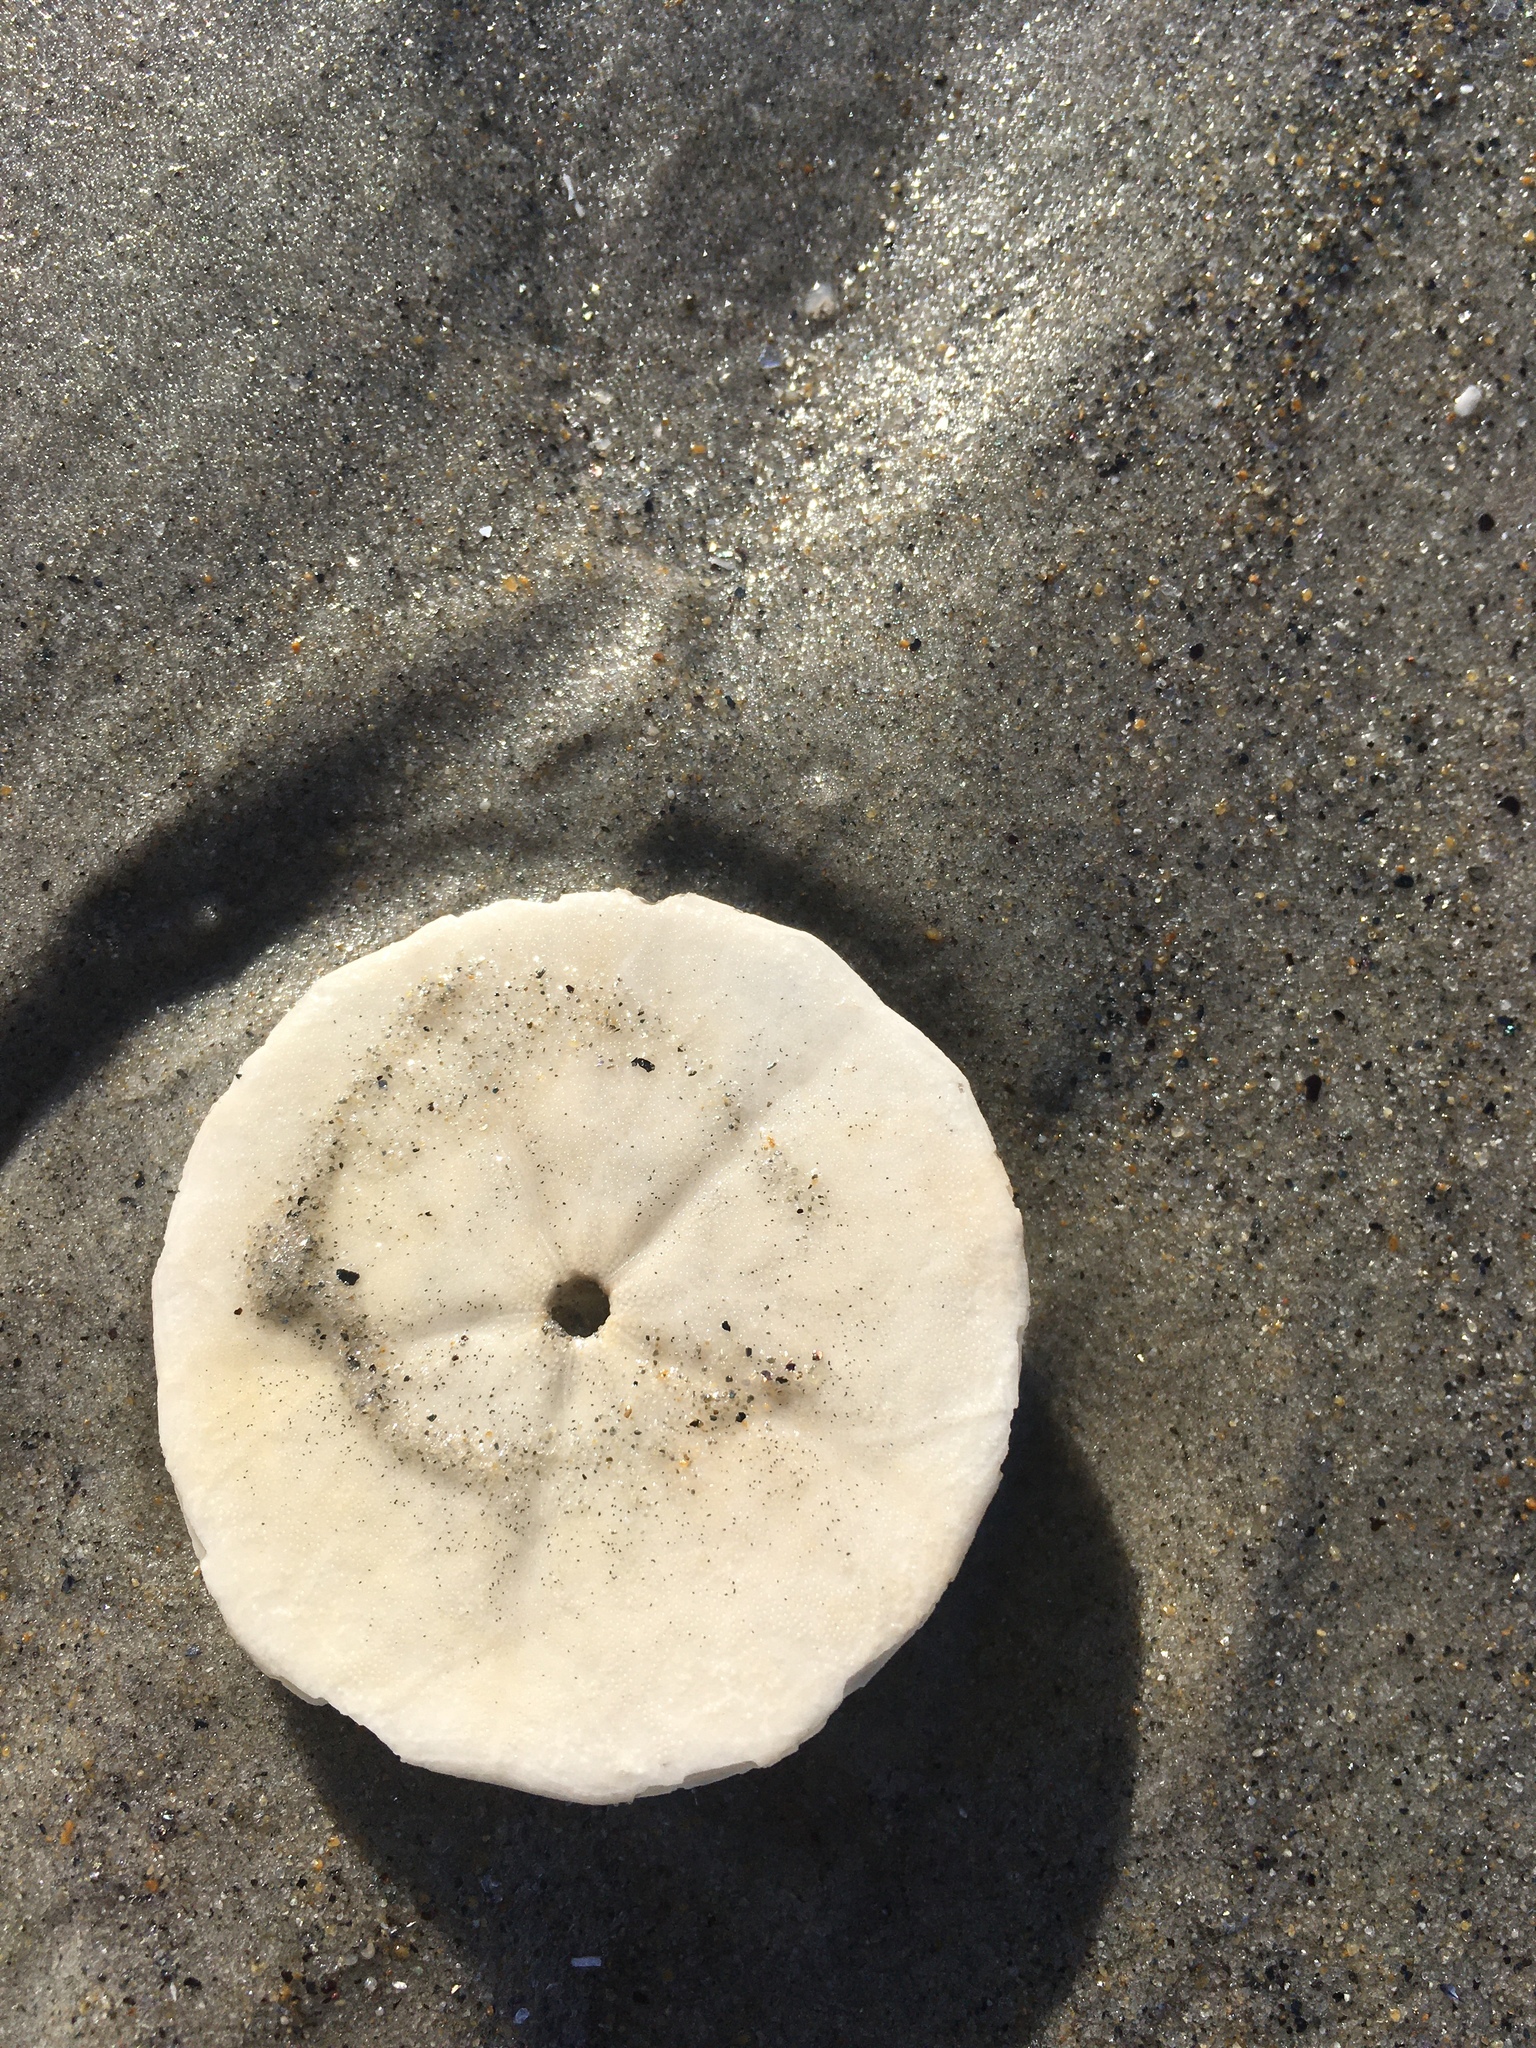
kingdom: Animalia
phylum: Echinodermata
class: Echinoidea
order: Echinolampadacea
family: Echinarachniidae
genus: Echinarachnius
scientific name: Echinarachnius parma
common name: Common sand dollar
